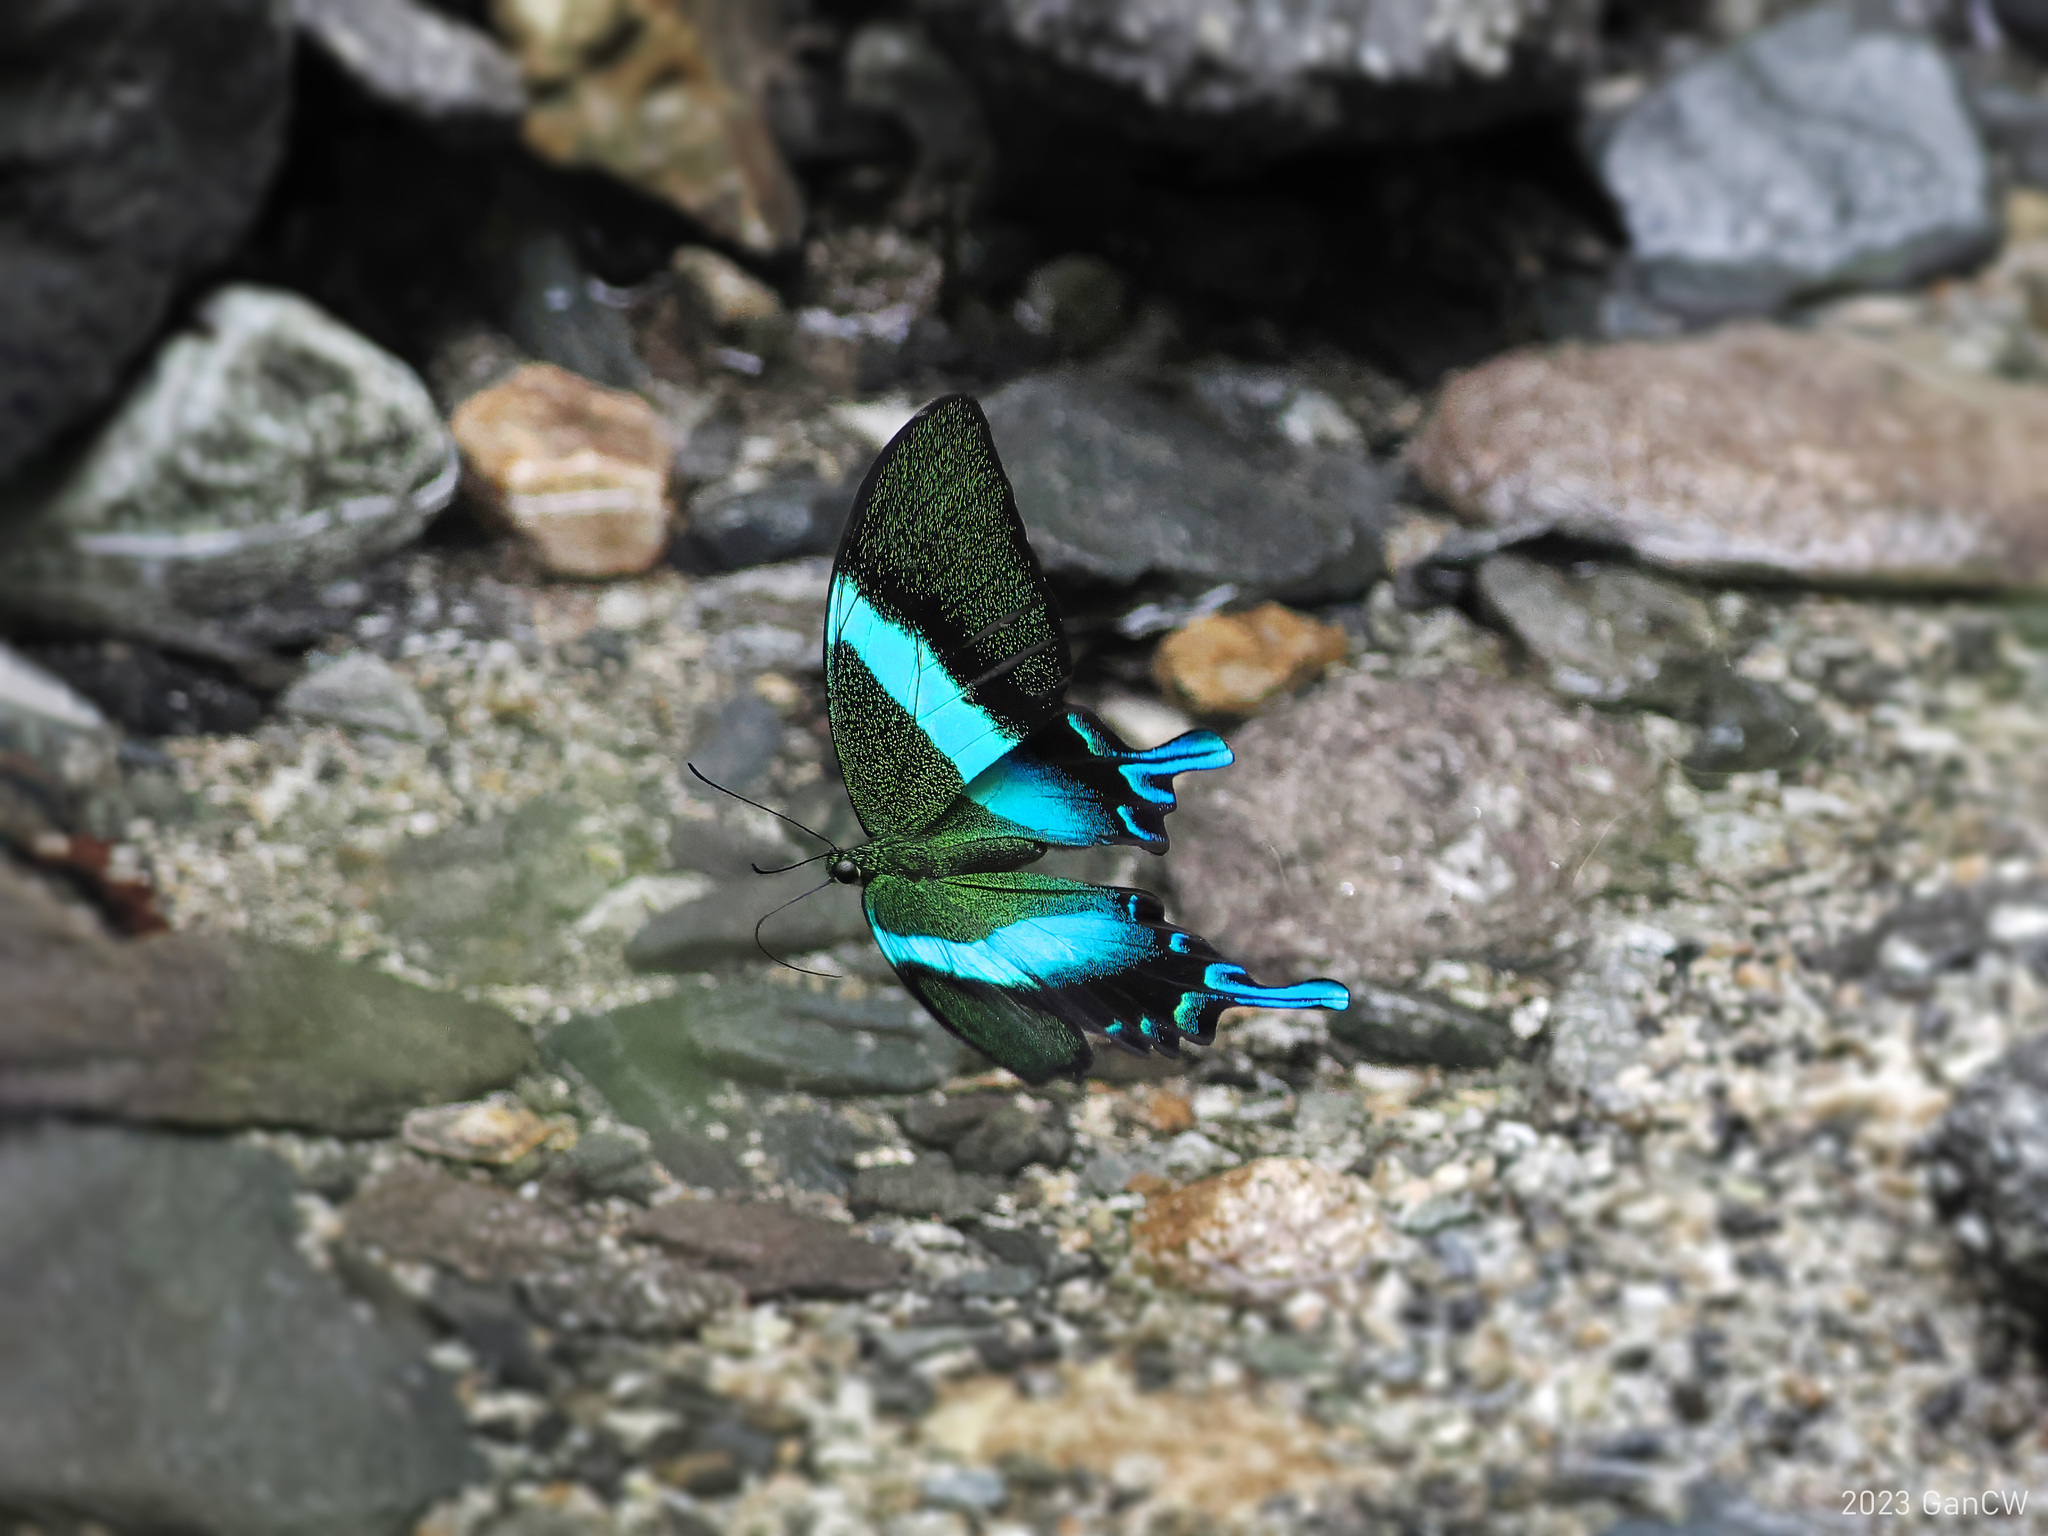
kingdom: Animalia
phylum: Arthropoda
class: Insecta
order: Lepidoptera
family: Papilionidae
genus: Papilio
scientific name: Papilio blumei
